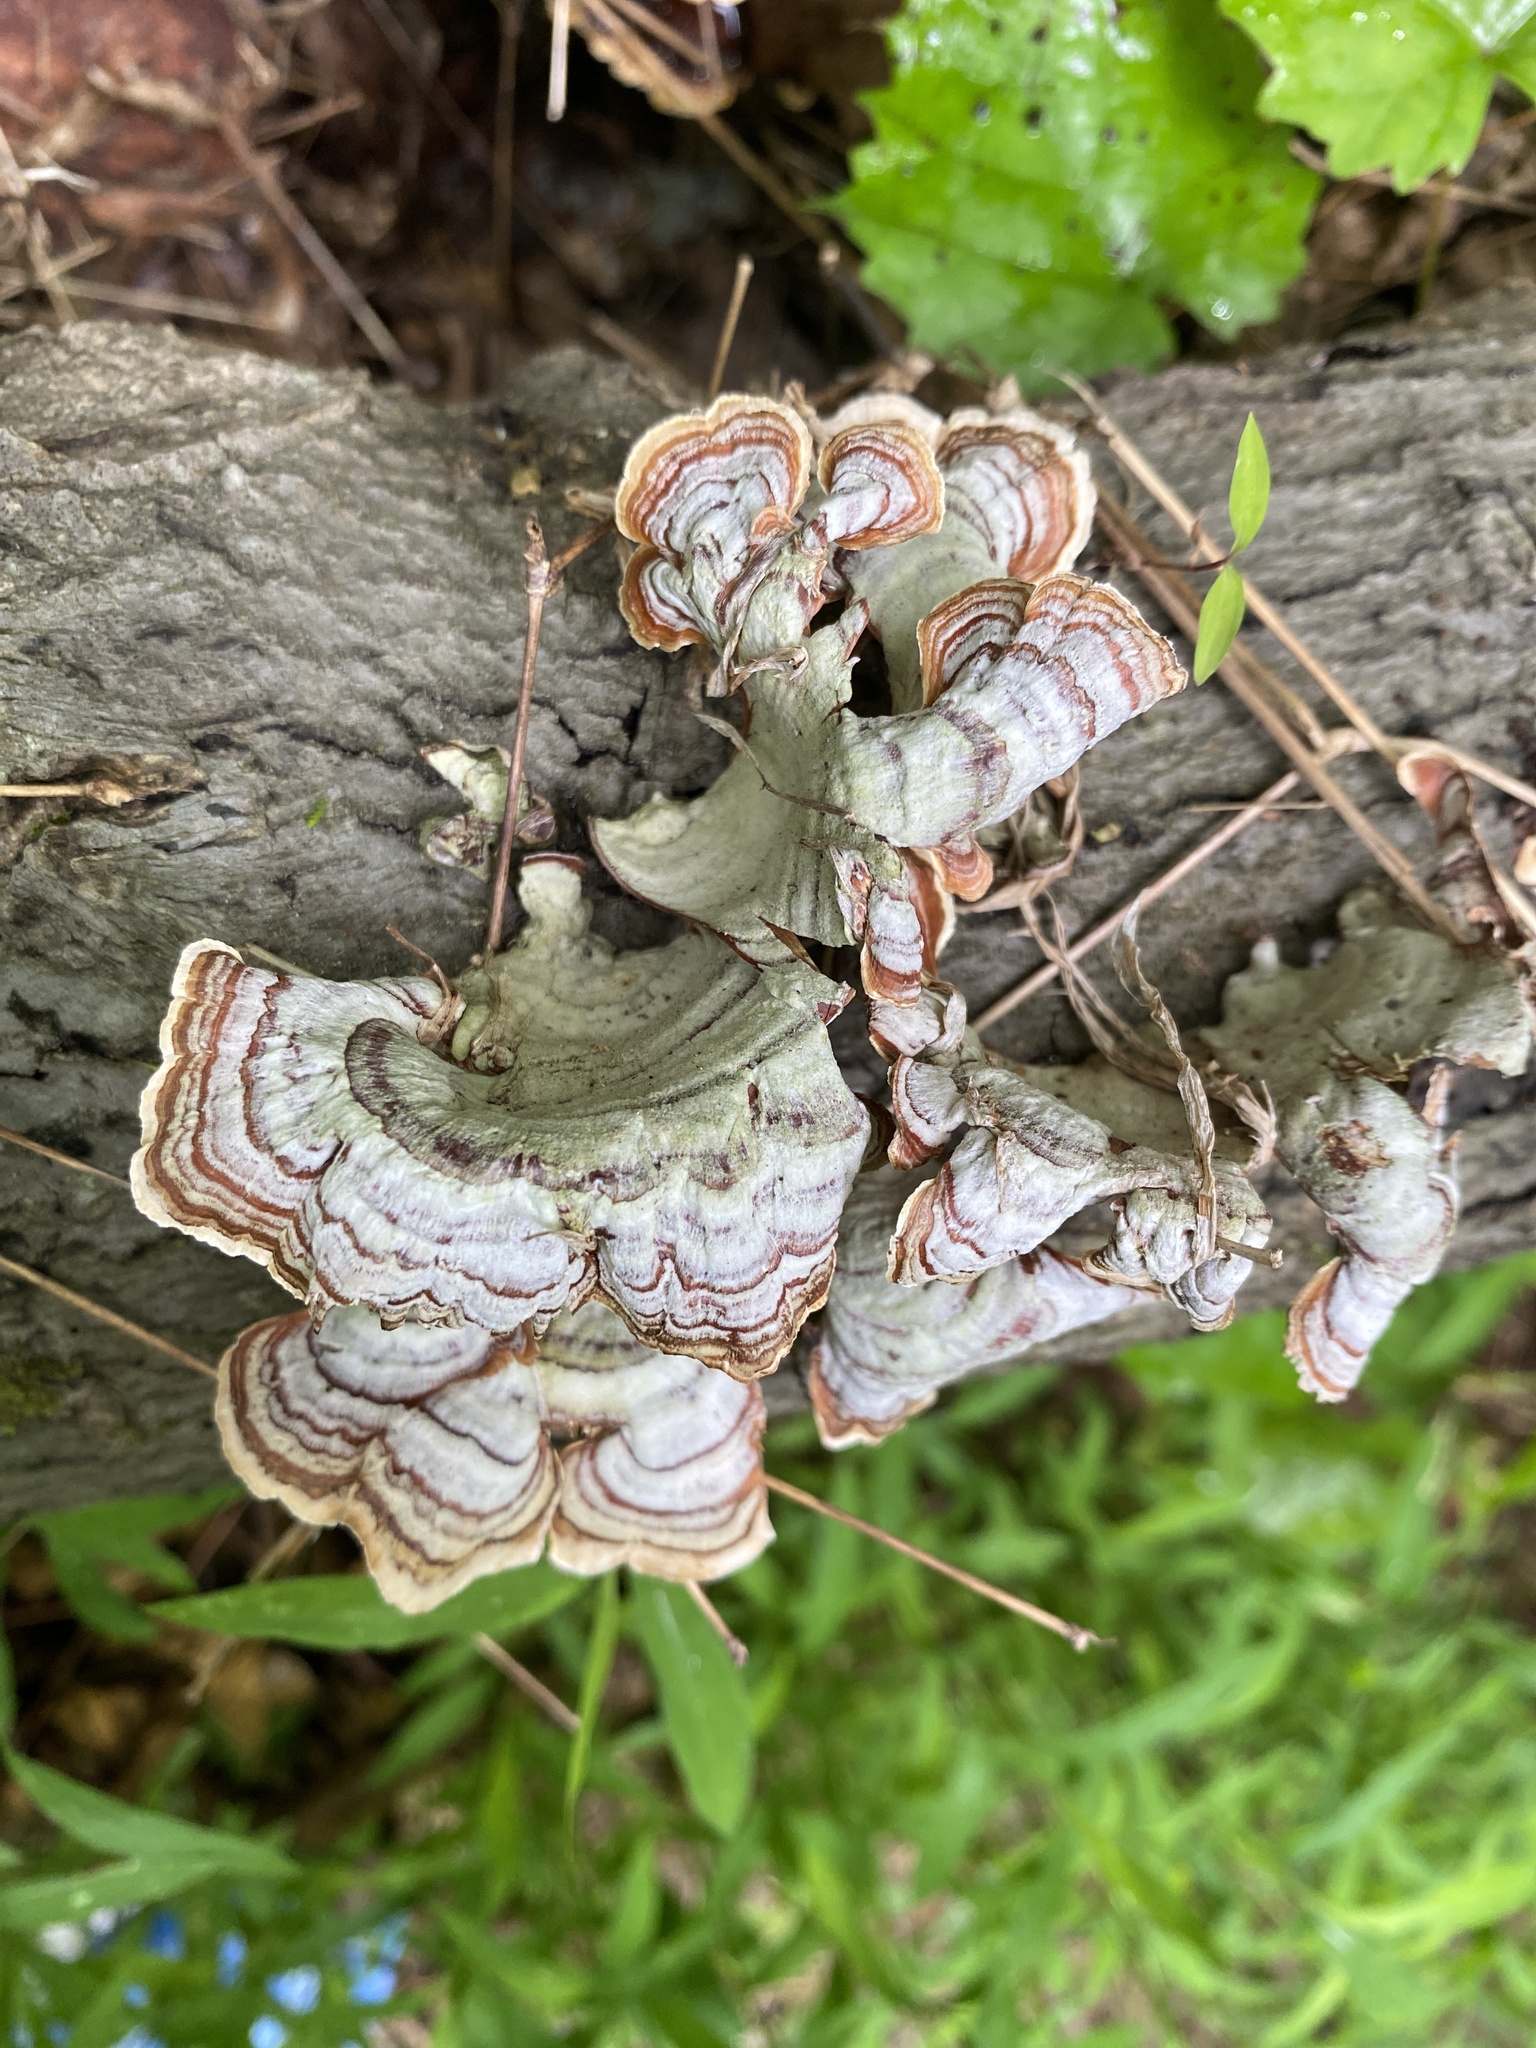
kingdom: Fungi
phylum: Basidiomycota
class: Agaricomycetes
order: Russulales
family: Stereaceae
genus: Stereum
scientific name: Stereum lobatum
